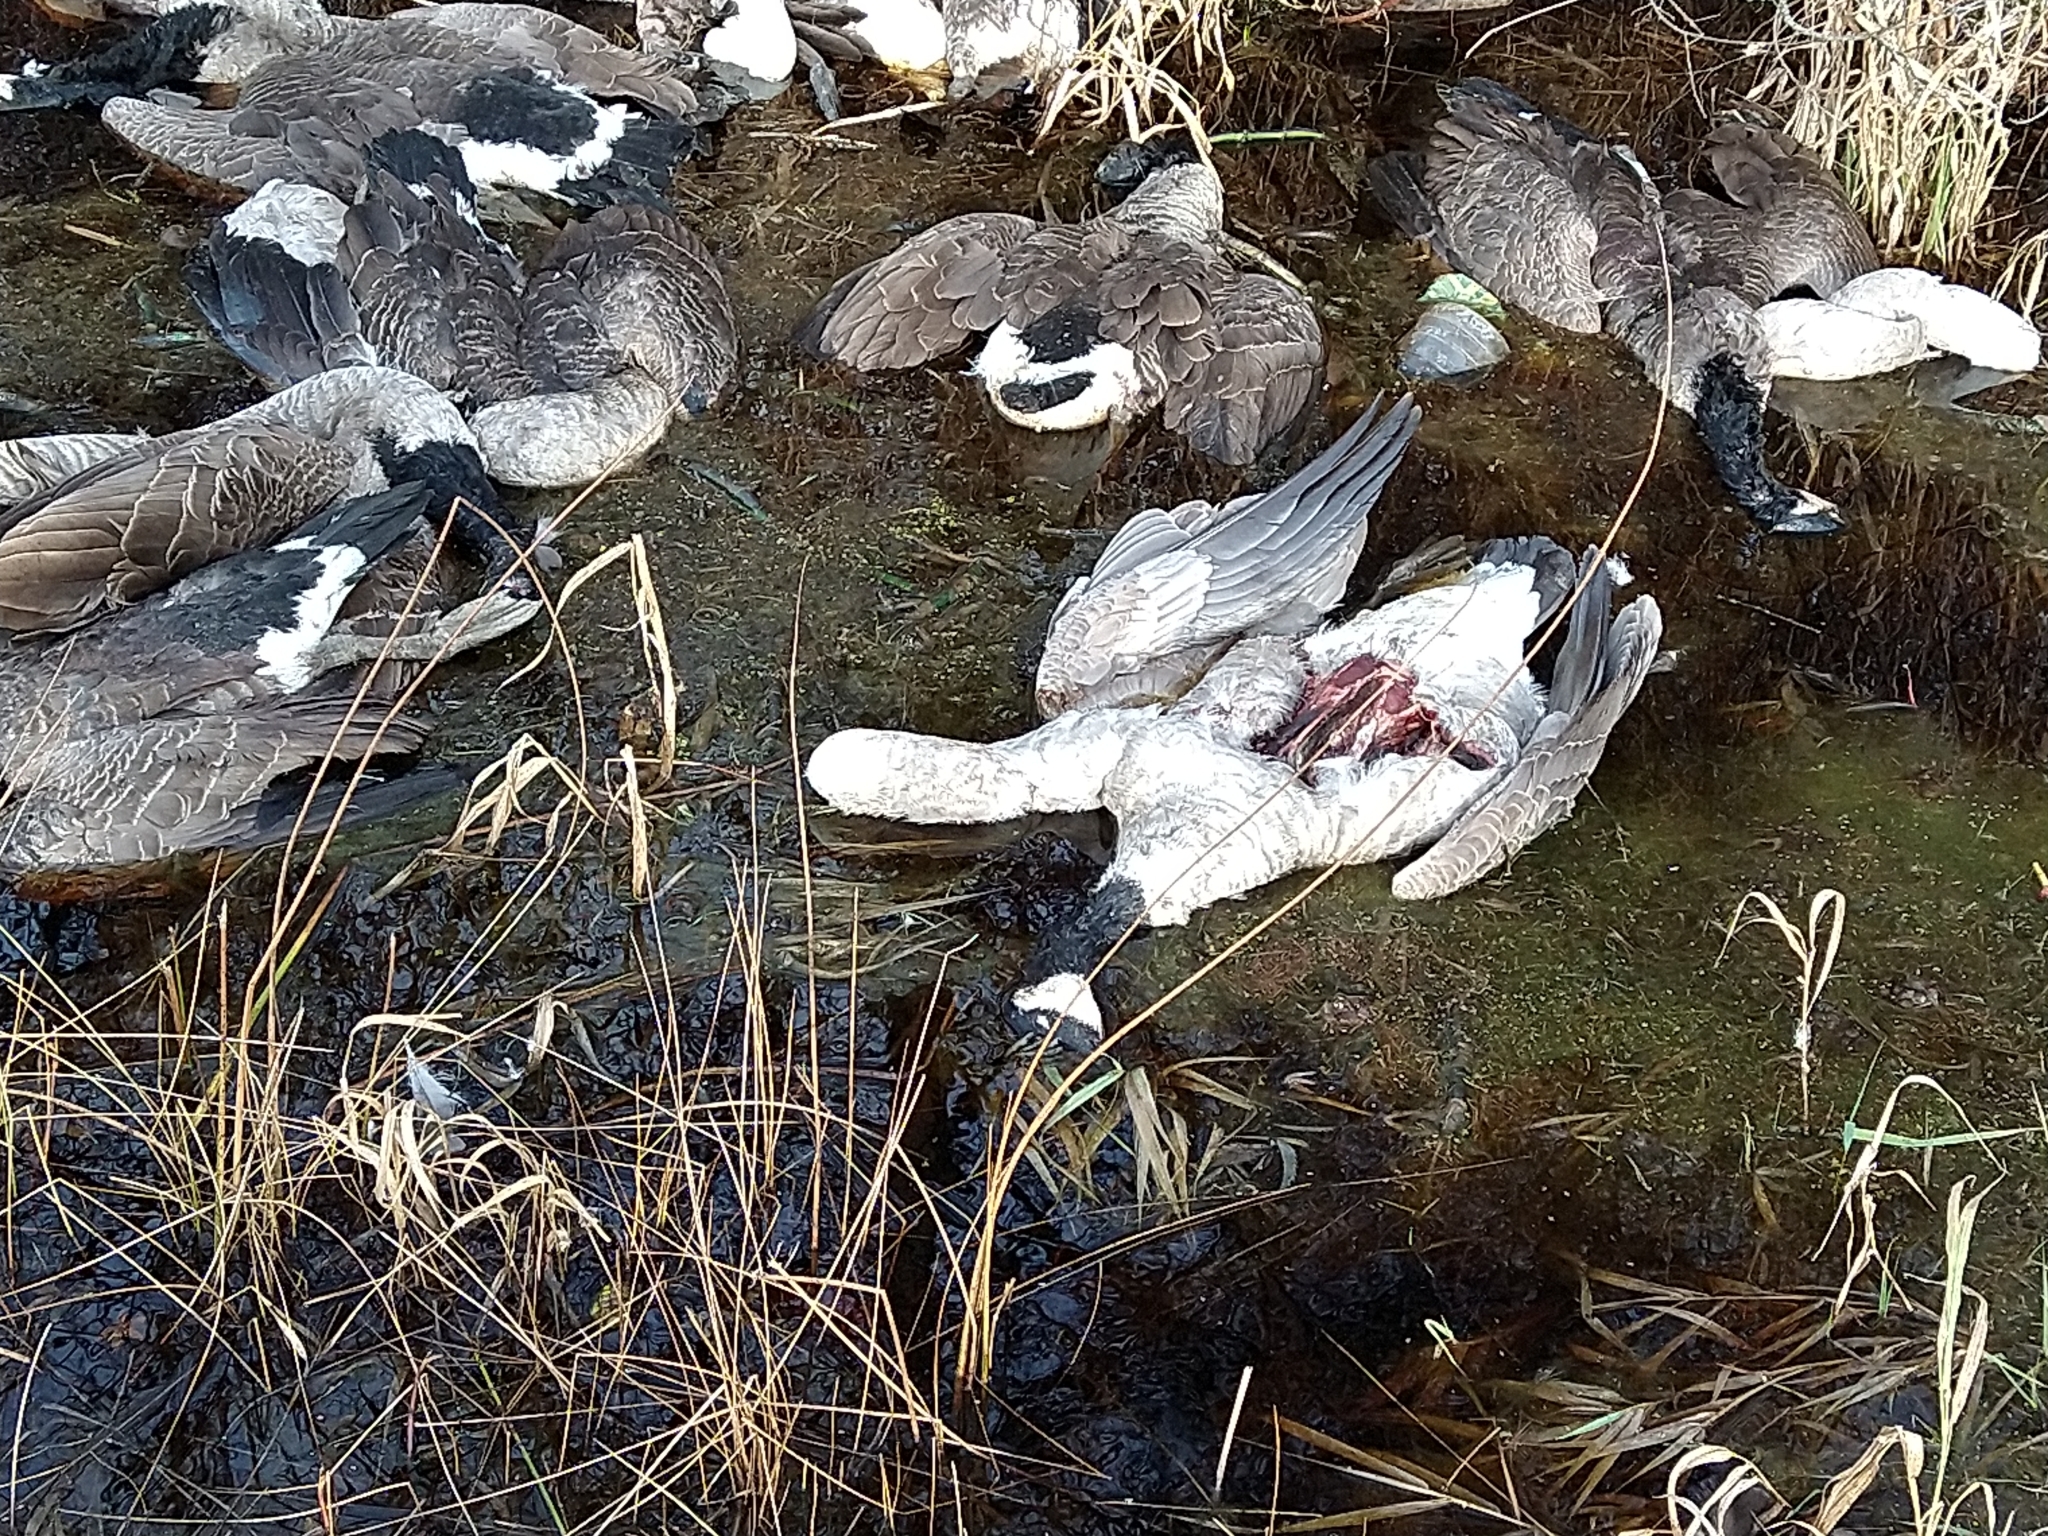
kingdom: Animalia
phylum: Chordata
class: Aves
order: Anseriformes
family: Anatidae
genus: Branta
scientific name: Branta canadensis
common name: Canada goose
